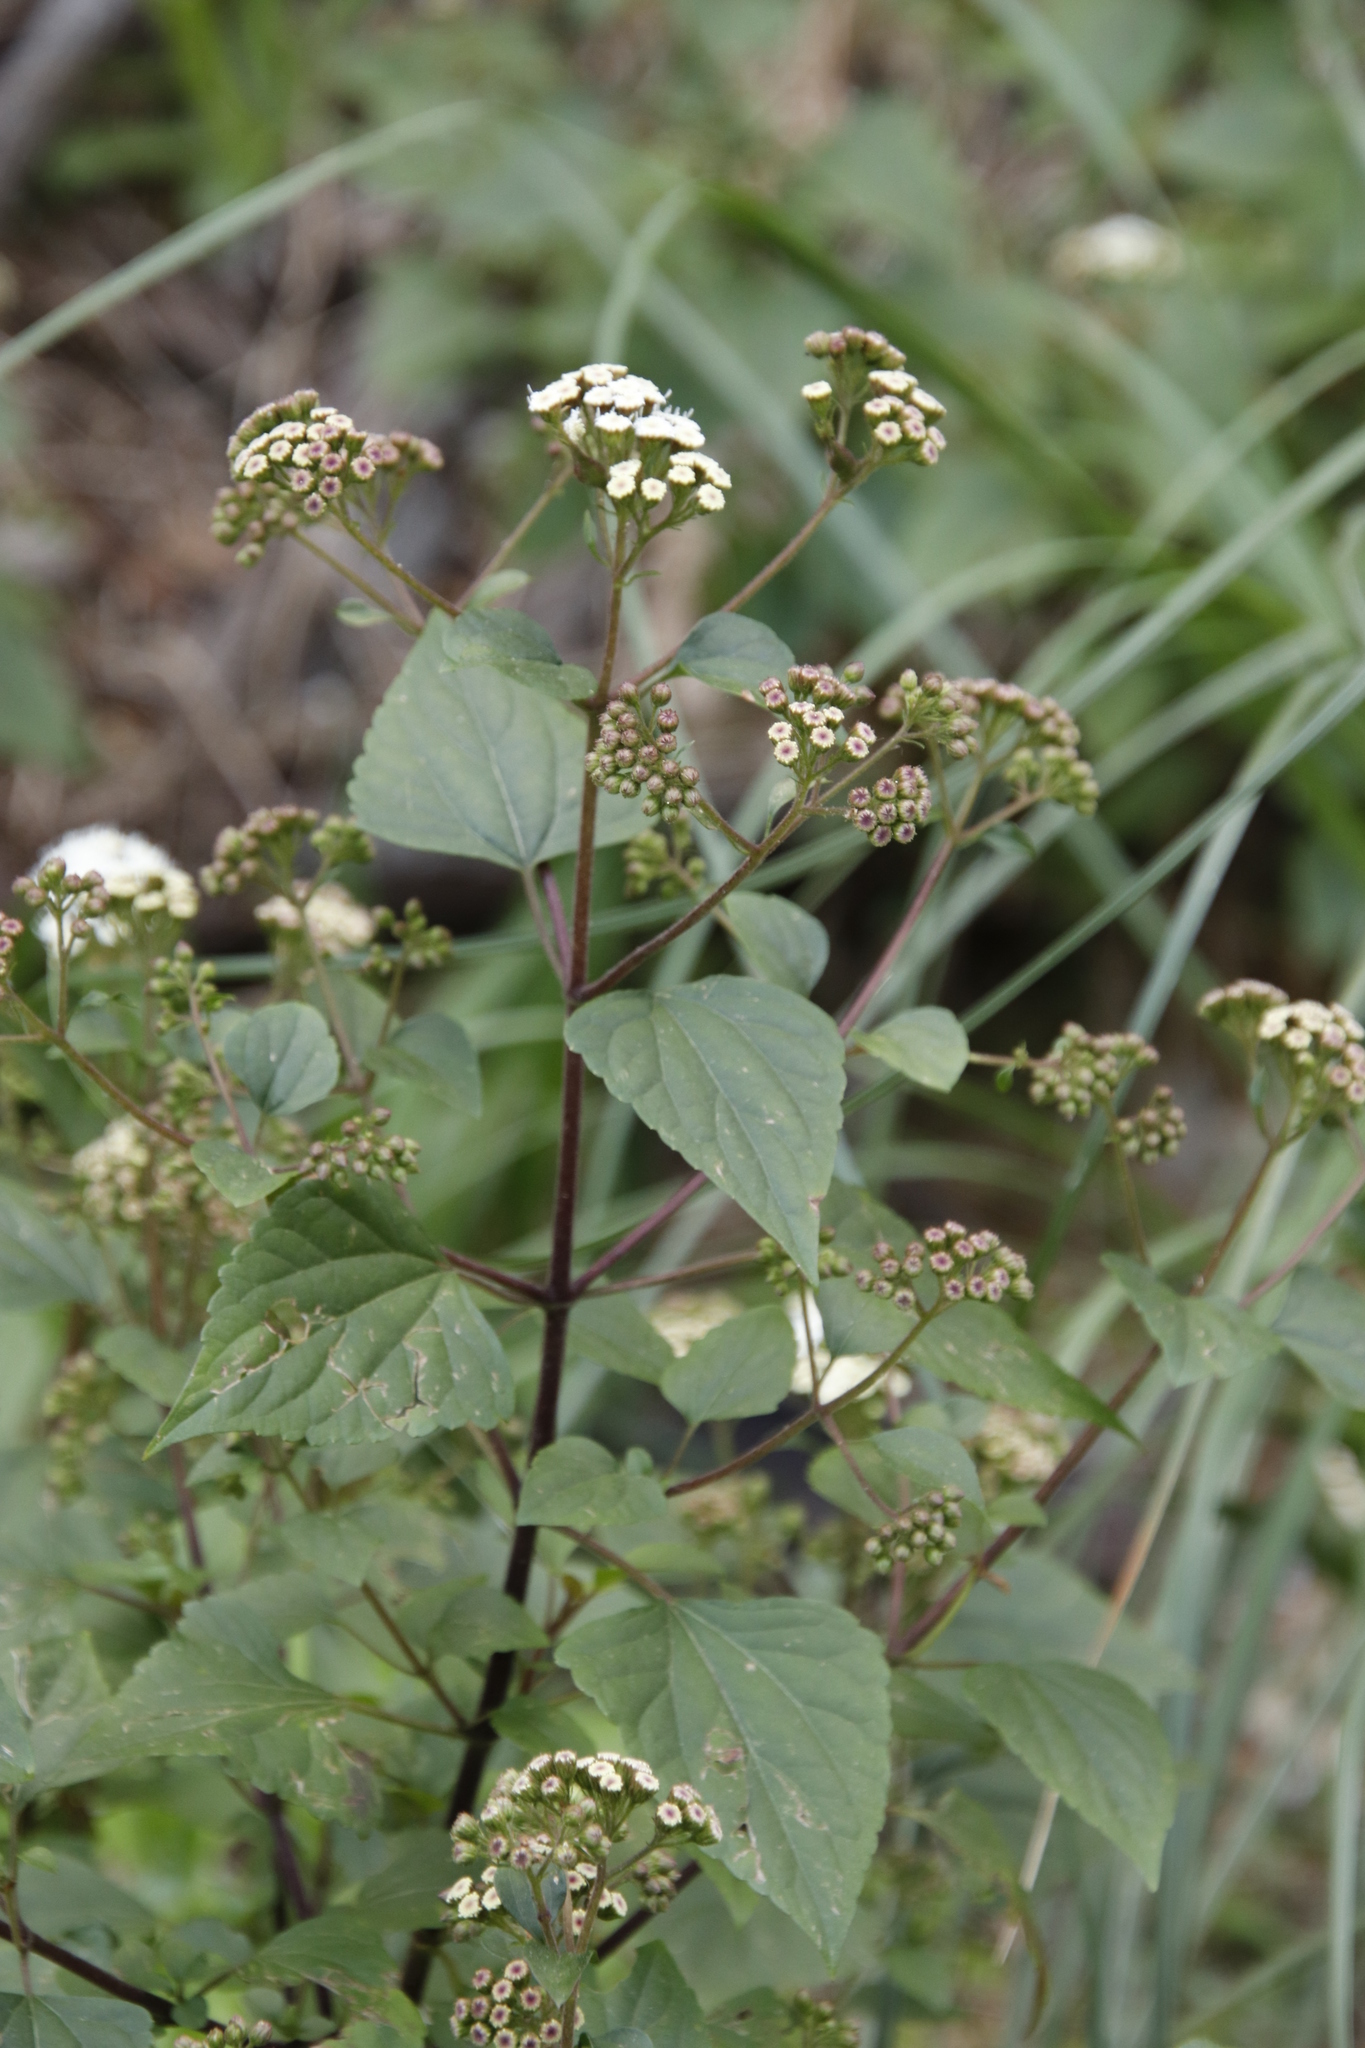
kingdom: Plantae
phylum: Tracheophyta
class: Magnoliopsida
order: Asterales
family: Asteraceae
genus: Ageratina
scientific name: Ageratina adenophora
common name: Sticky snakeroot
